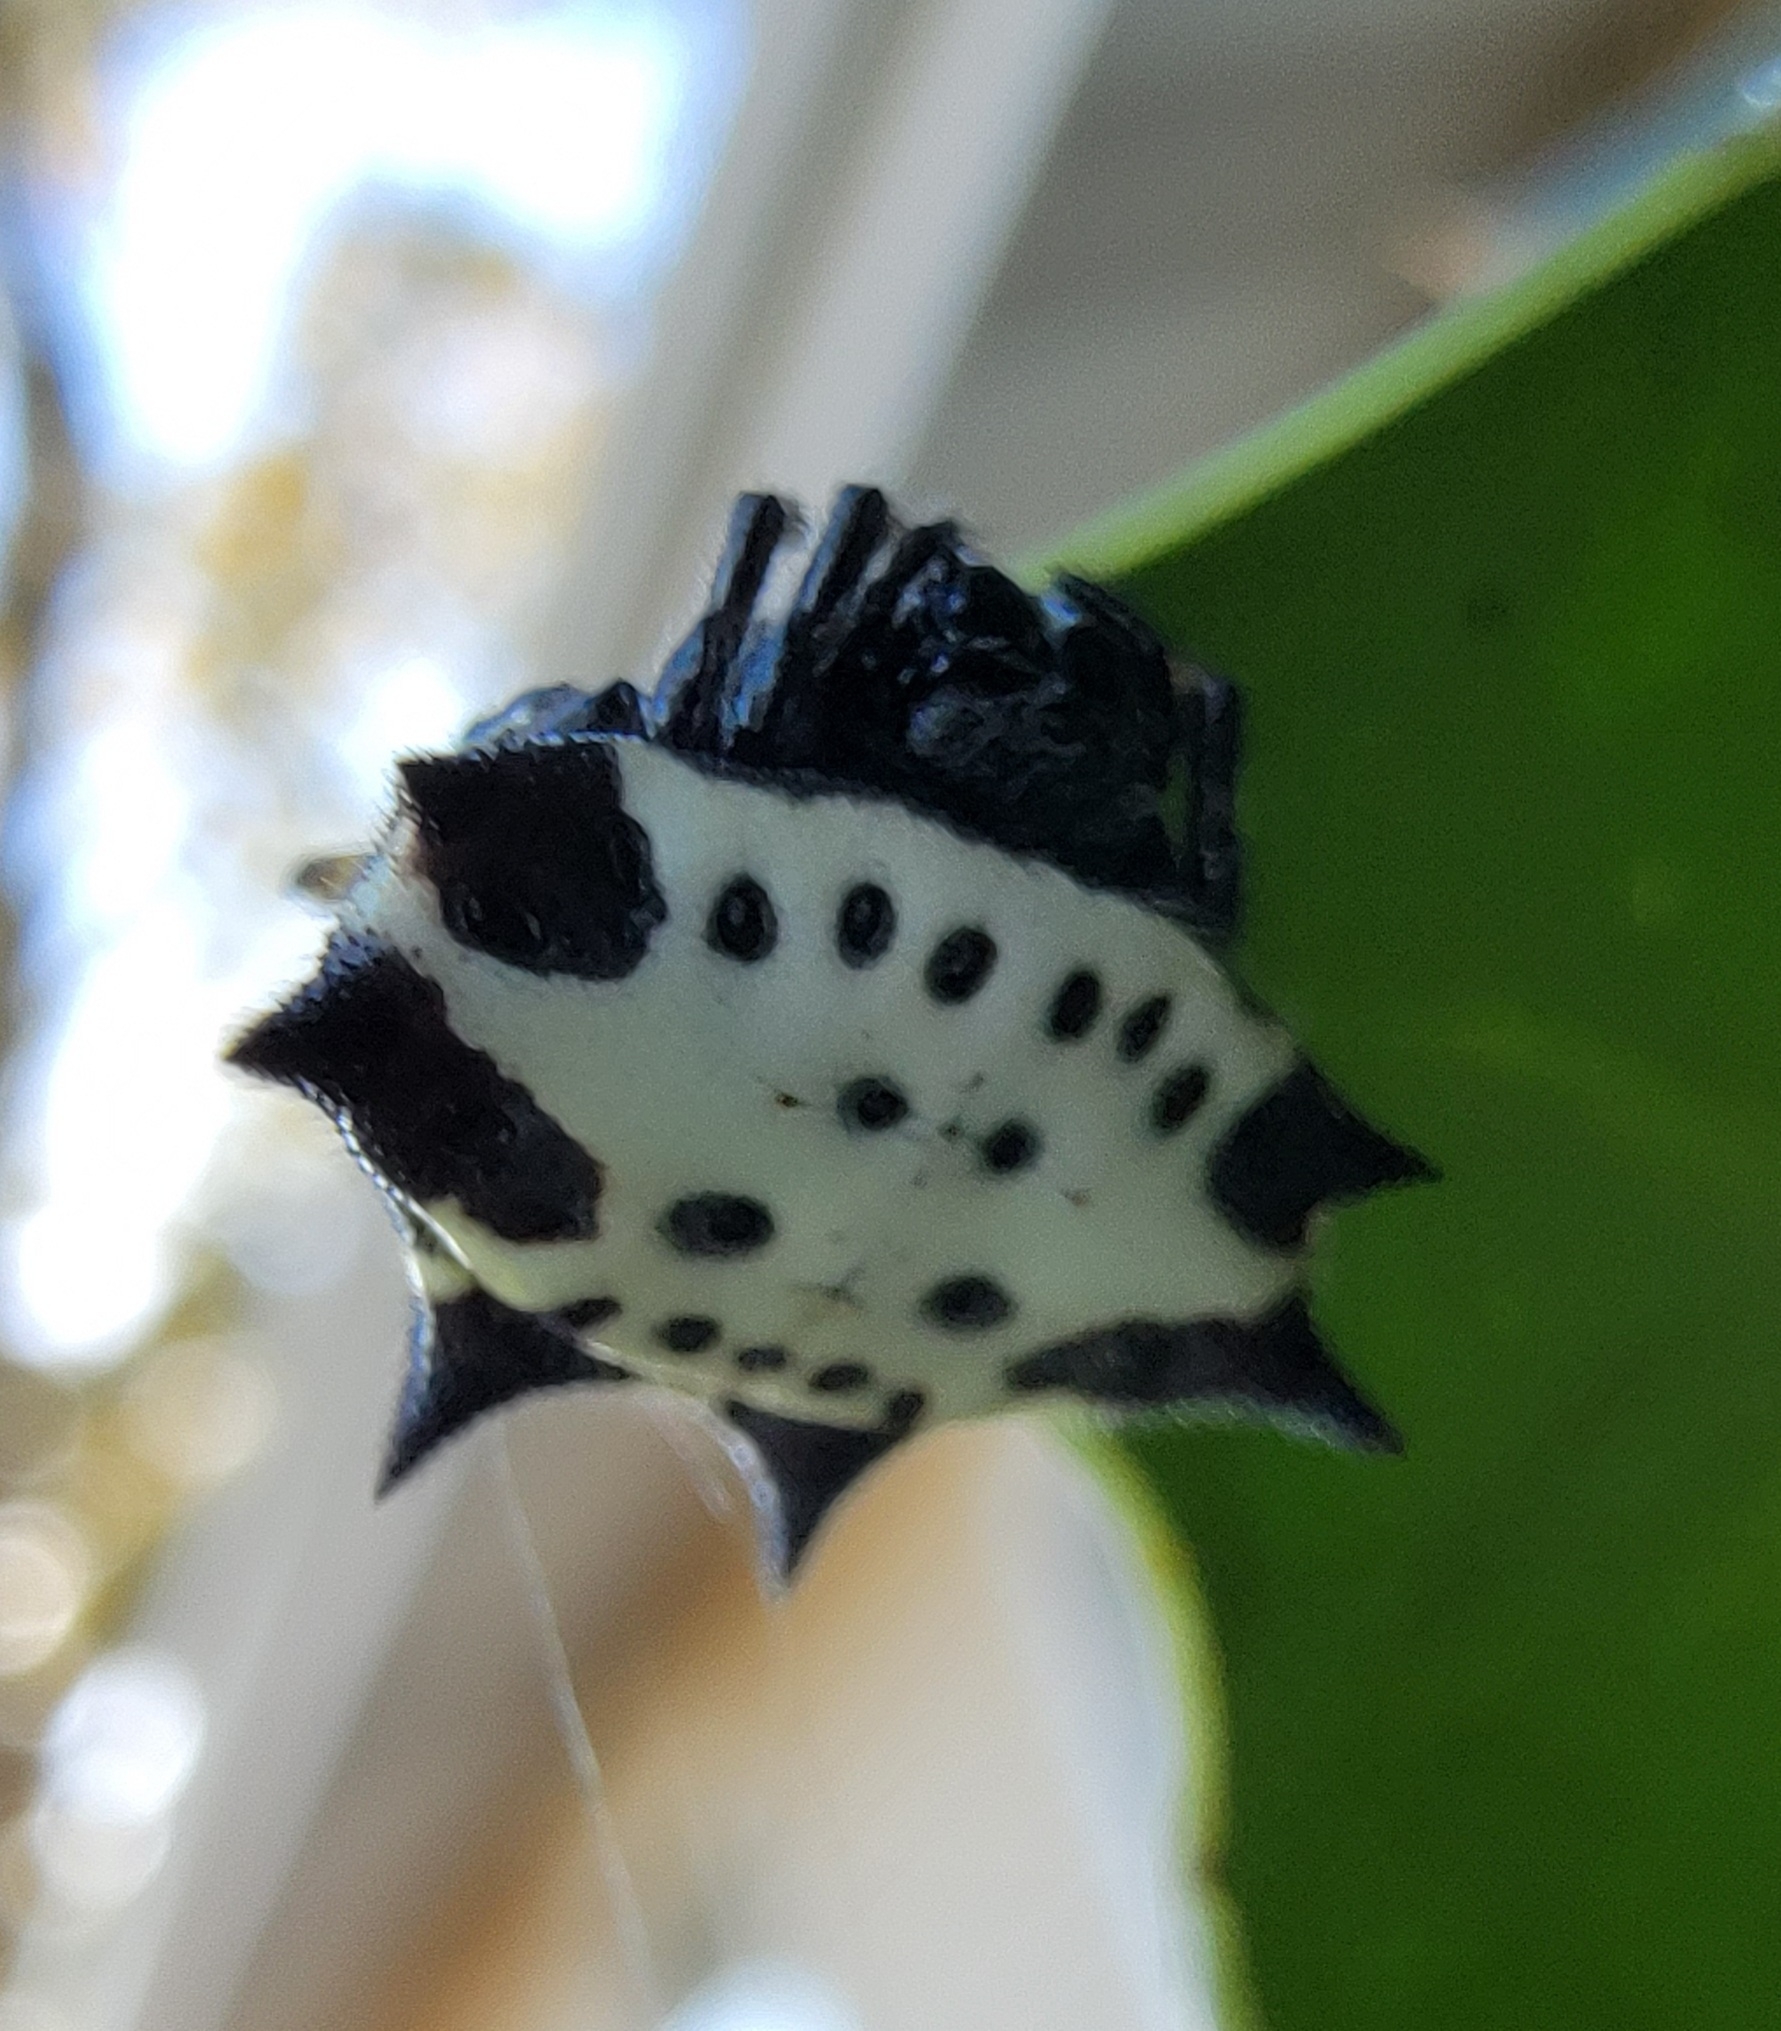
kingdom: Animalia
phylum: Arthropoda
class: Arachnida
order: Araneae
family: Araneidae
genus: Gasteracantha
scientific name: Gasteracantha cancriformis
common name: Orb weavers
